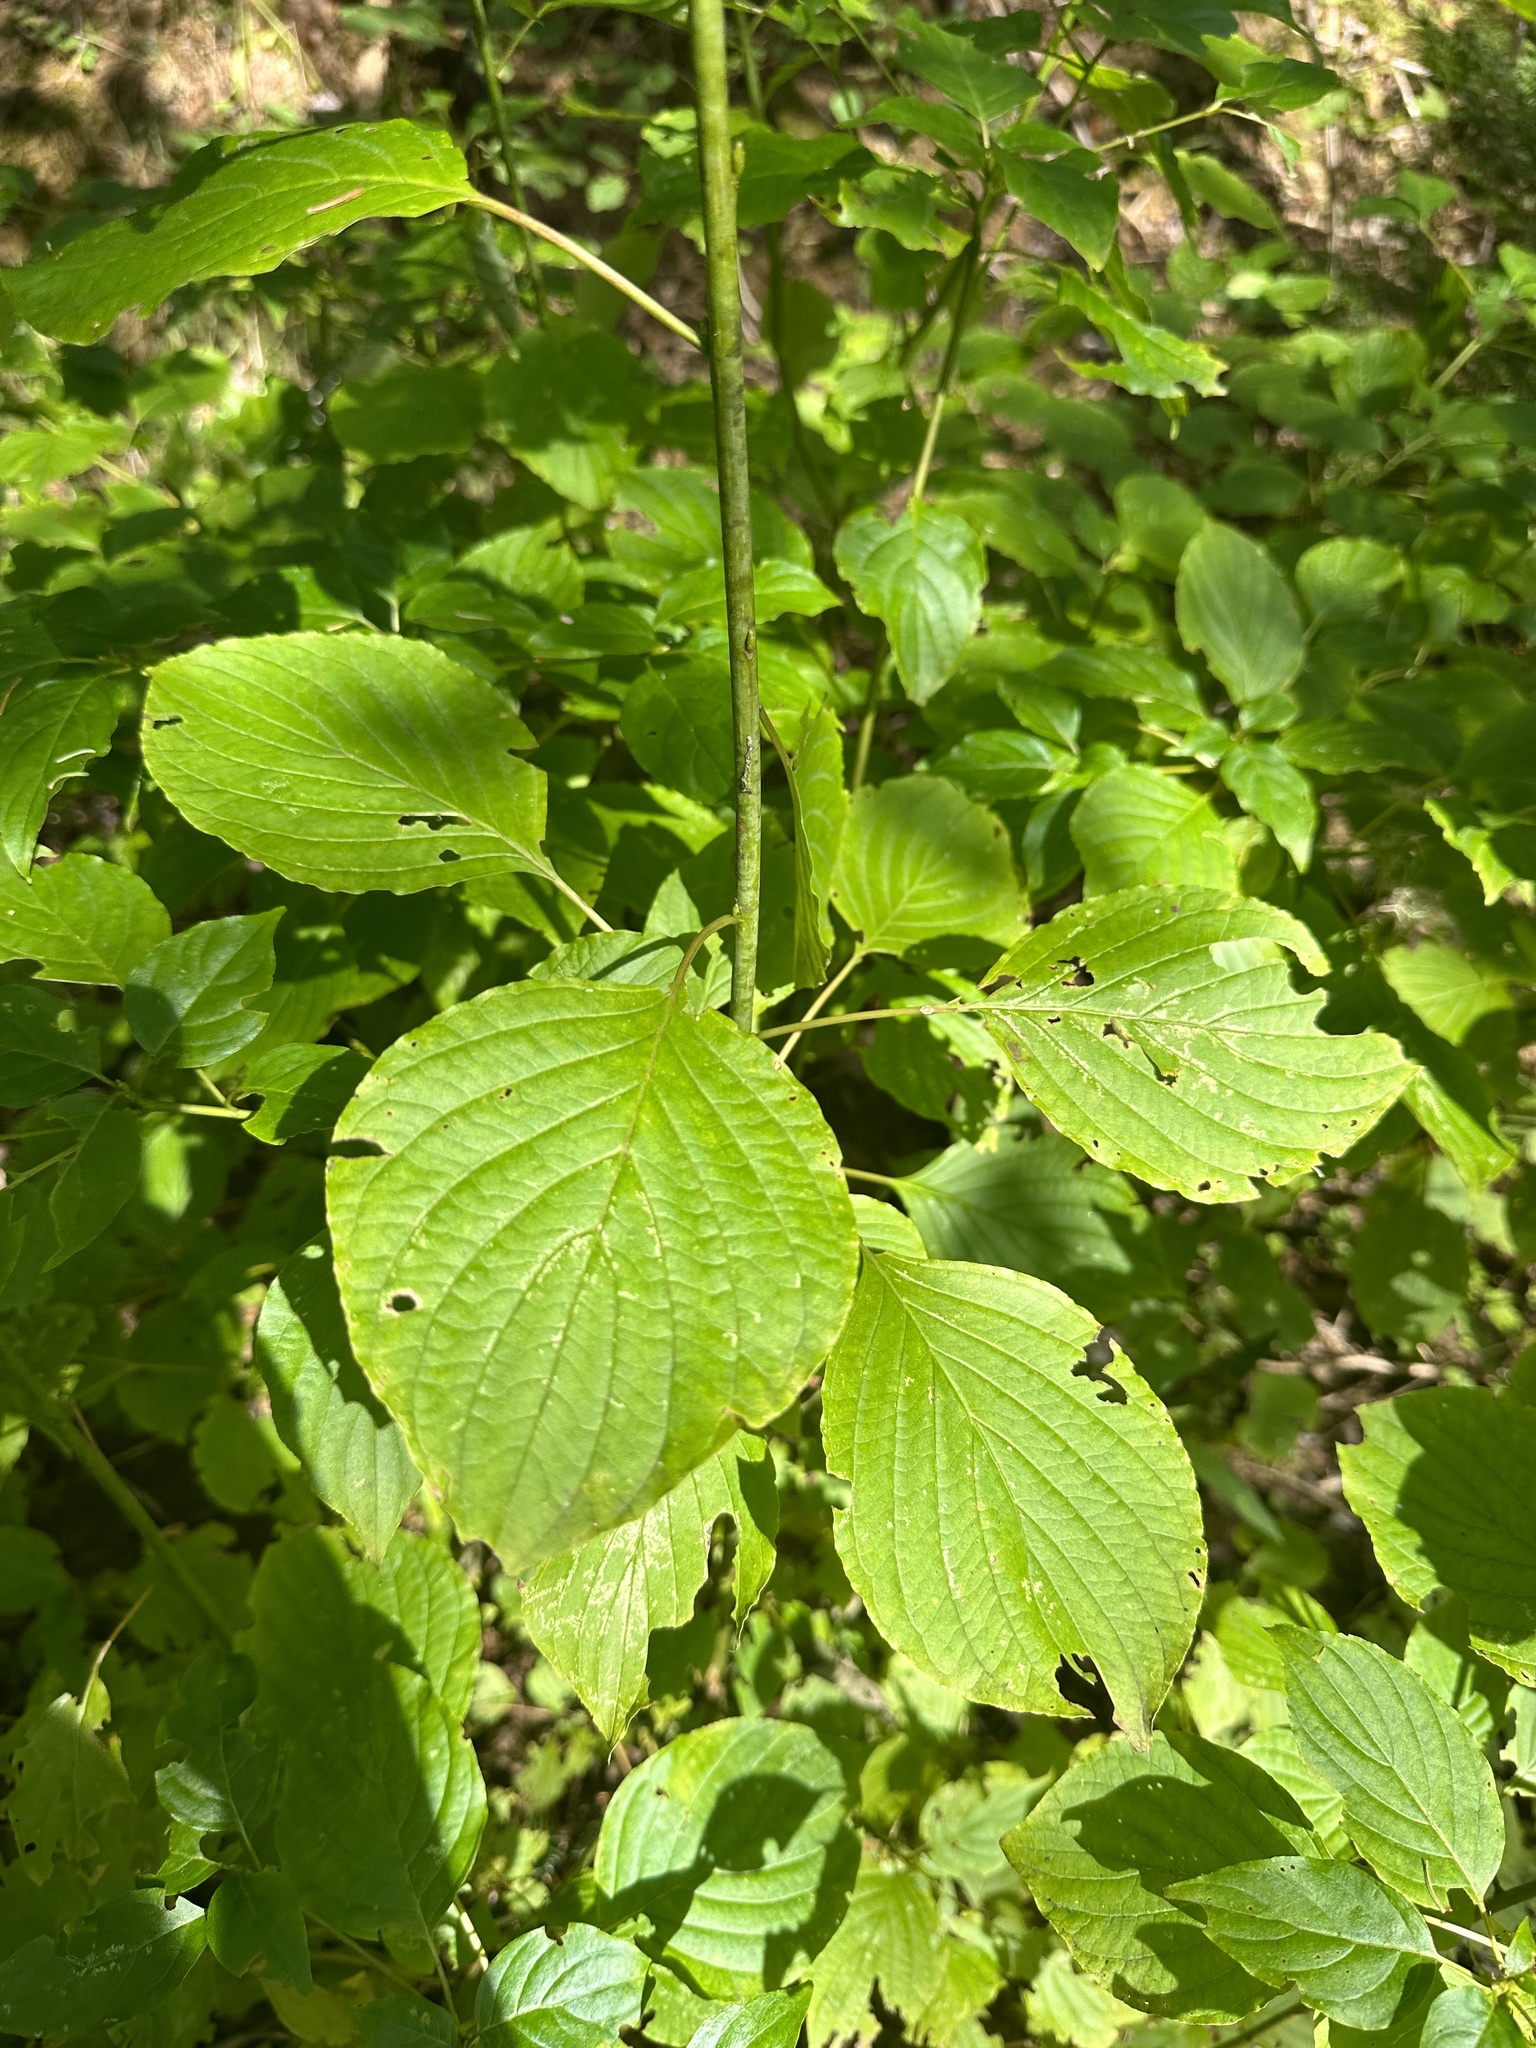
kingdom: Plantae
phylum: Tracheophyta
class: Magnoliopsida
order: Cornales
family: Cornaceae
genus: Cornus
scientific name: Cornus rugosa
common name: Round-leaf dogwood
